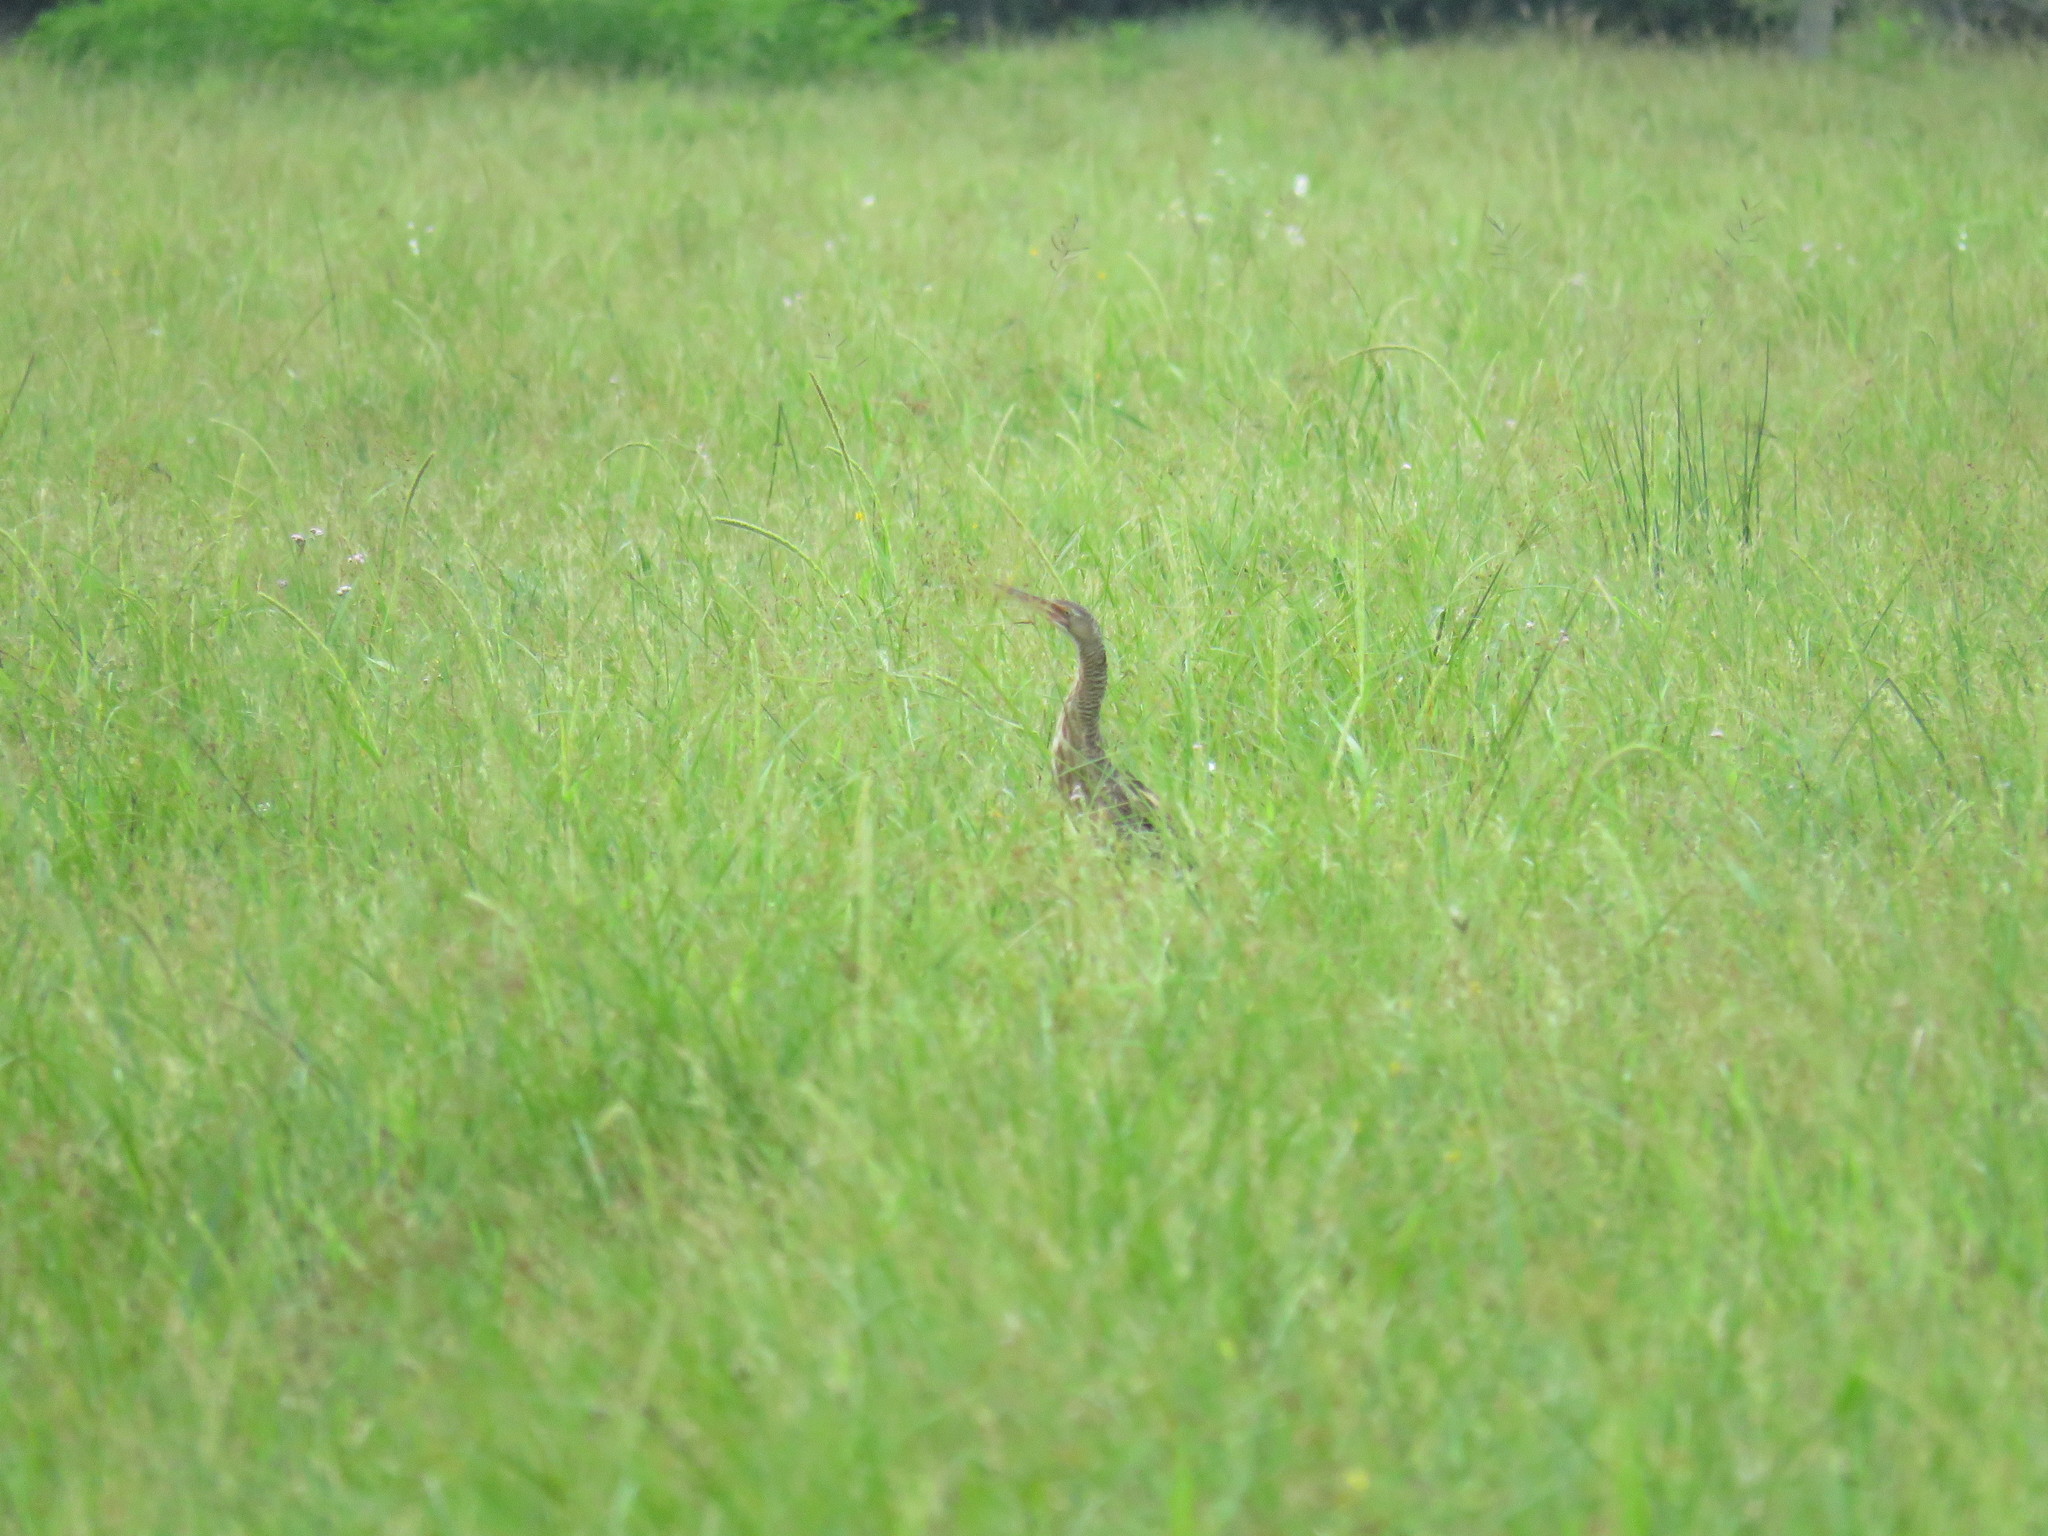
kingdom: Animalia
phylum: Chordata
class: Aves
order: Pelecaniformes
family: Ardeidae
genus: Botaurus
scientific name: Botaurus pinnatus
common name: Pinnated bittern
